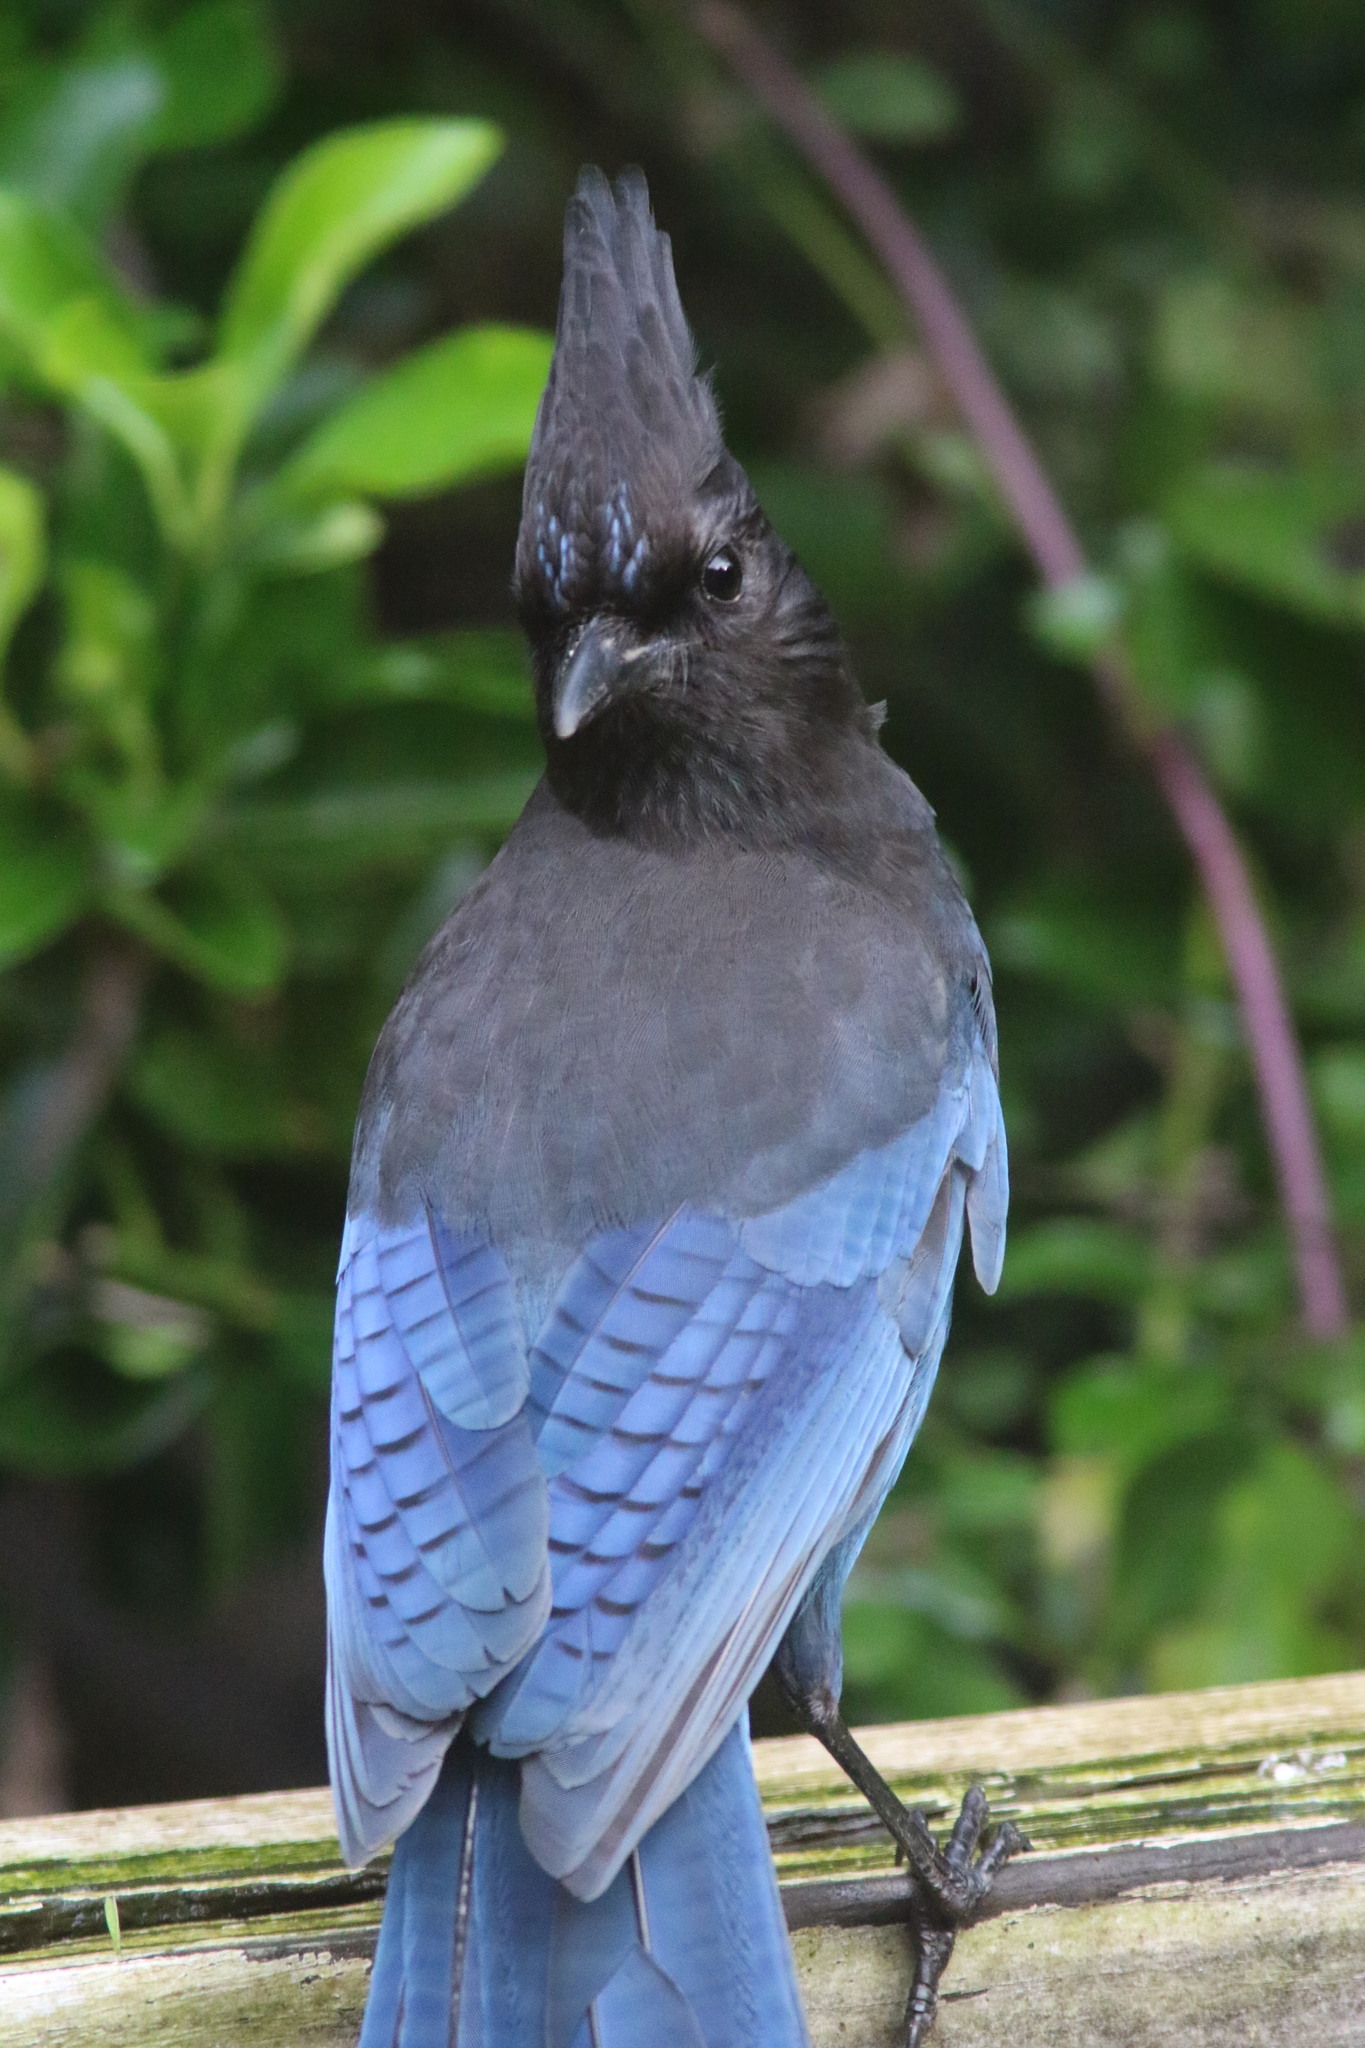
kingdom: Animalia
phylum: Chordata
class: Aves
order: Passeriformes
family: Corvidae
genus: Cyanocitta
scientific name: Cyanocitta stelleri
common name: Steller's jay
